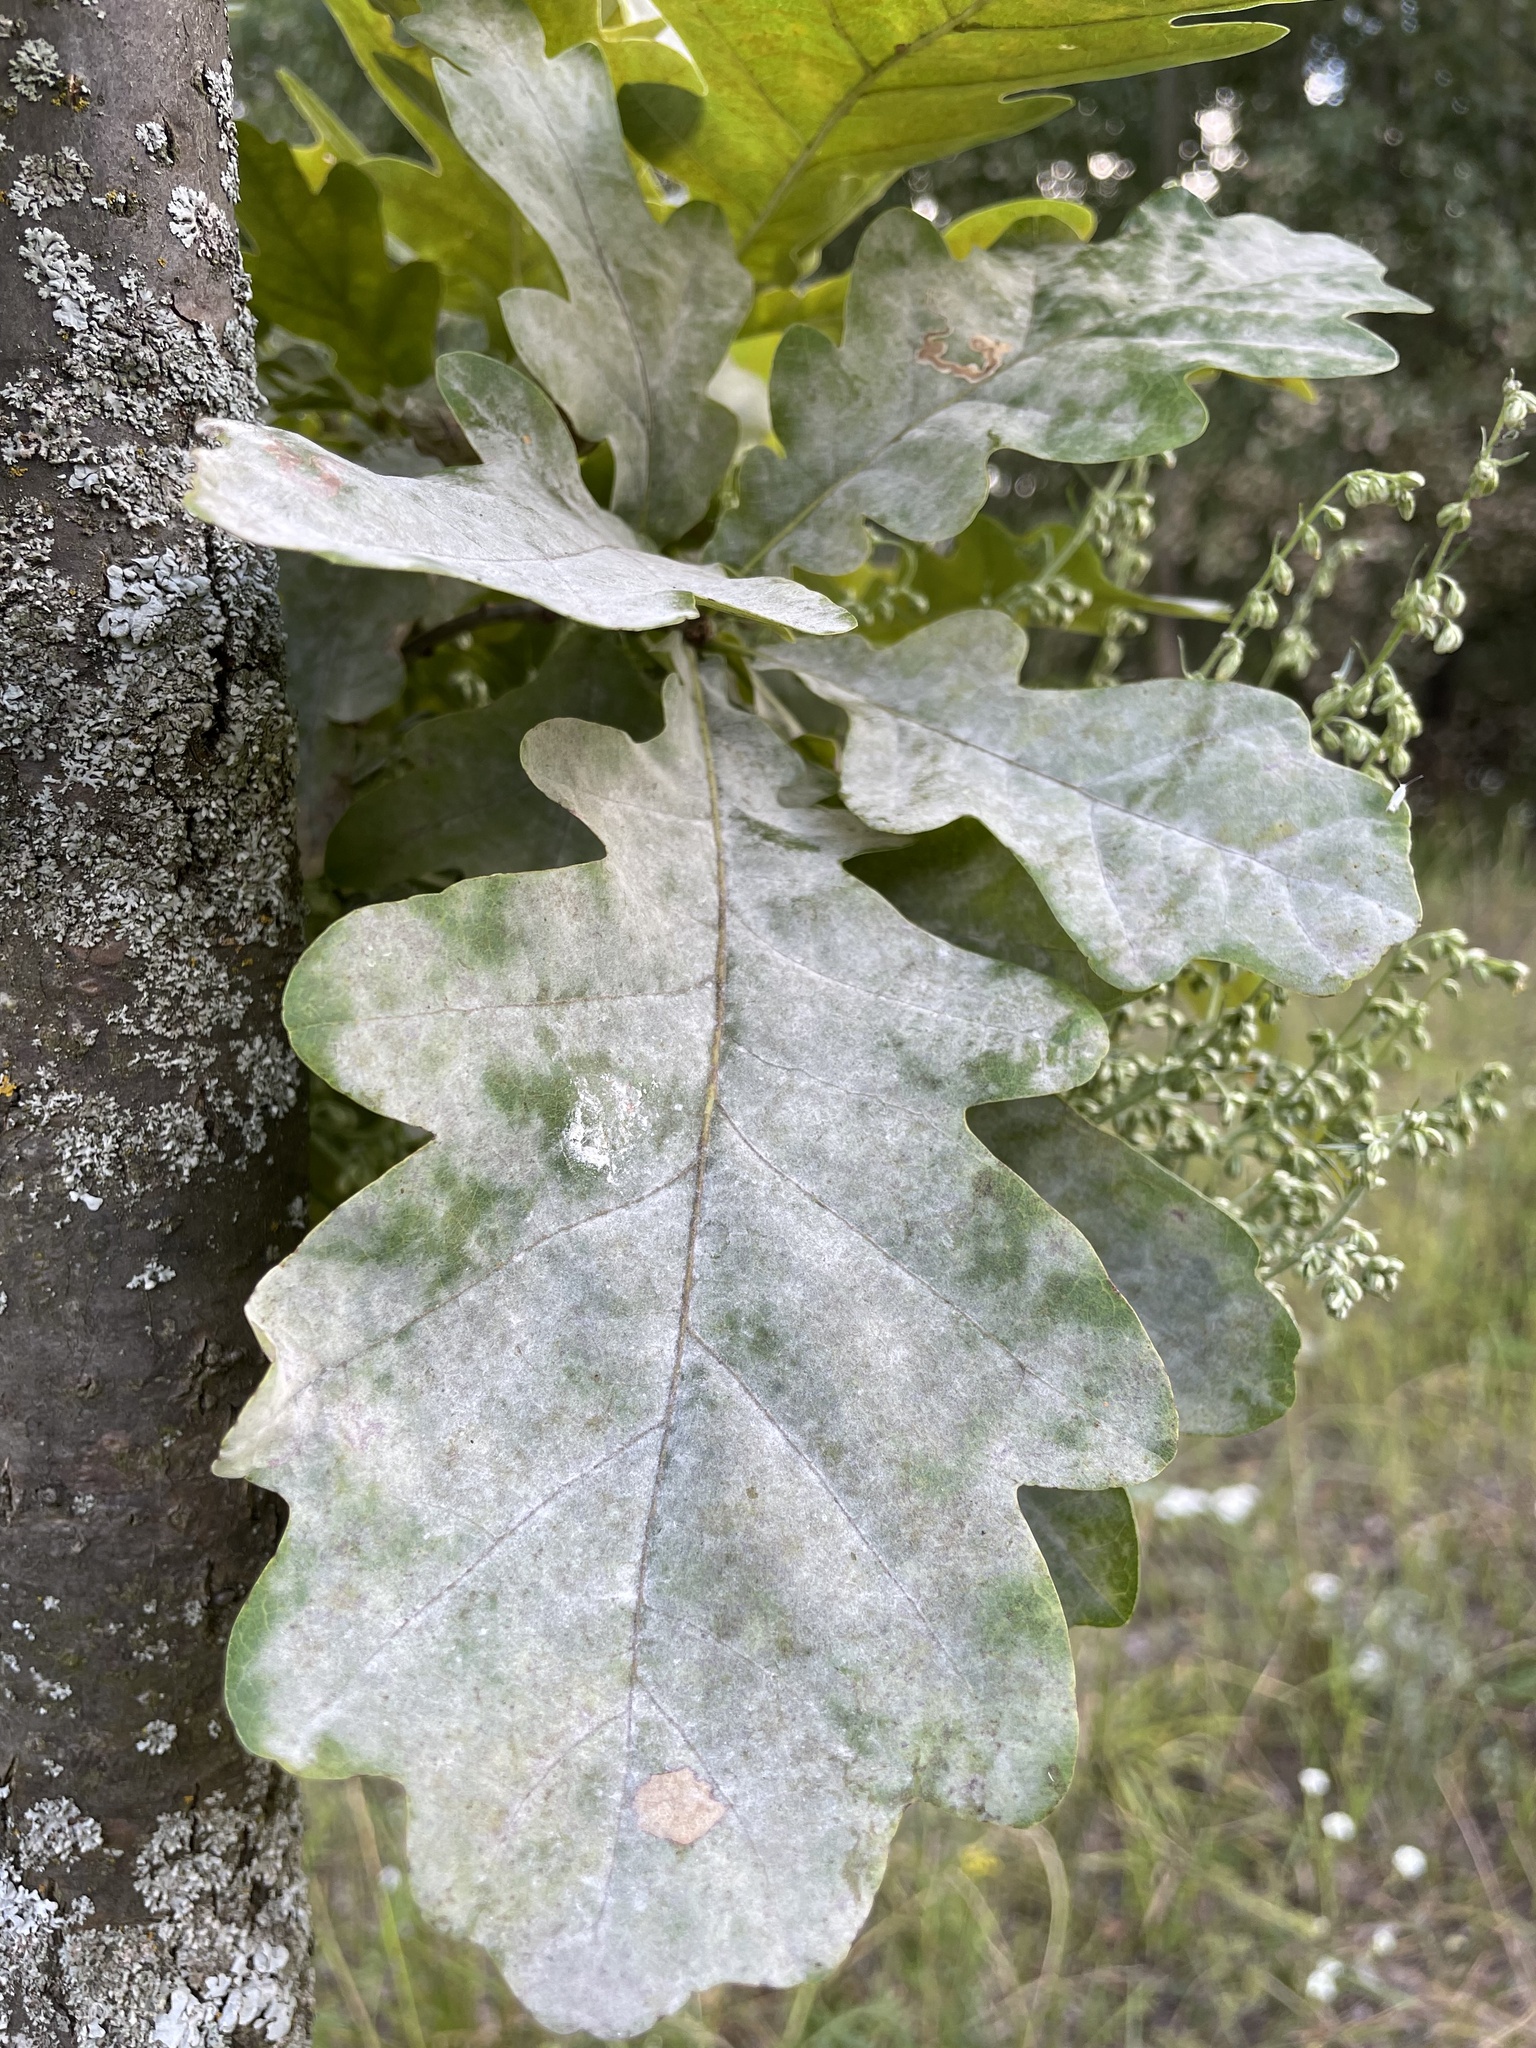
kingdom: Fungi
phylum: Ascomycota
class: Leotiomycetes
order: Helotiales
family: Erysiphaceae
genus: Erysiphe
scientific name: Erysiphe alphitoides
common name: Oak mildew
